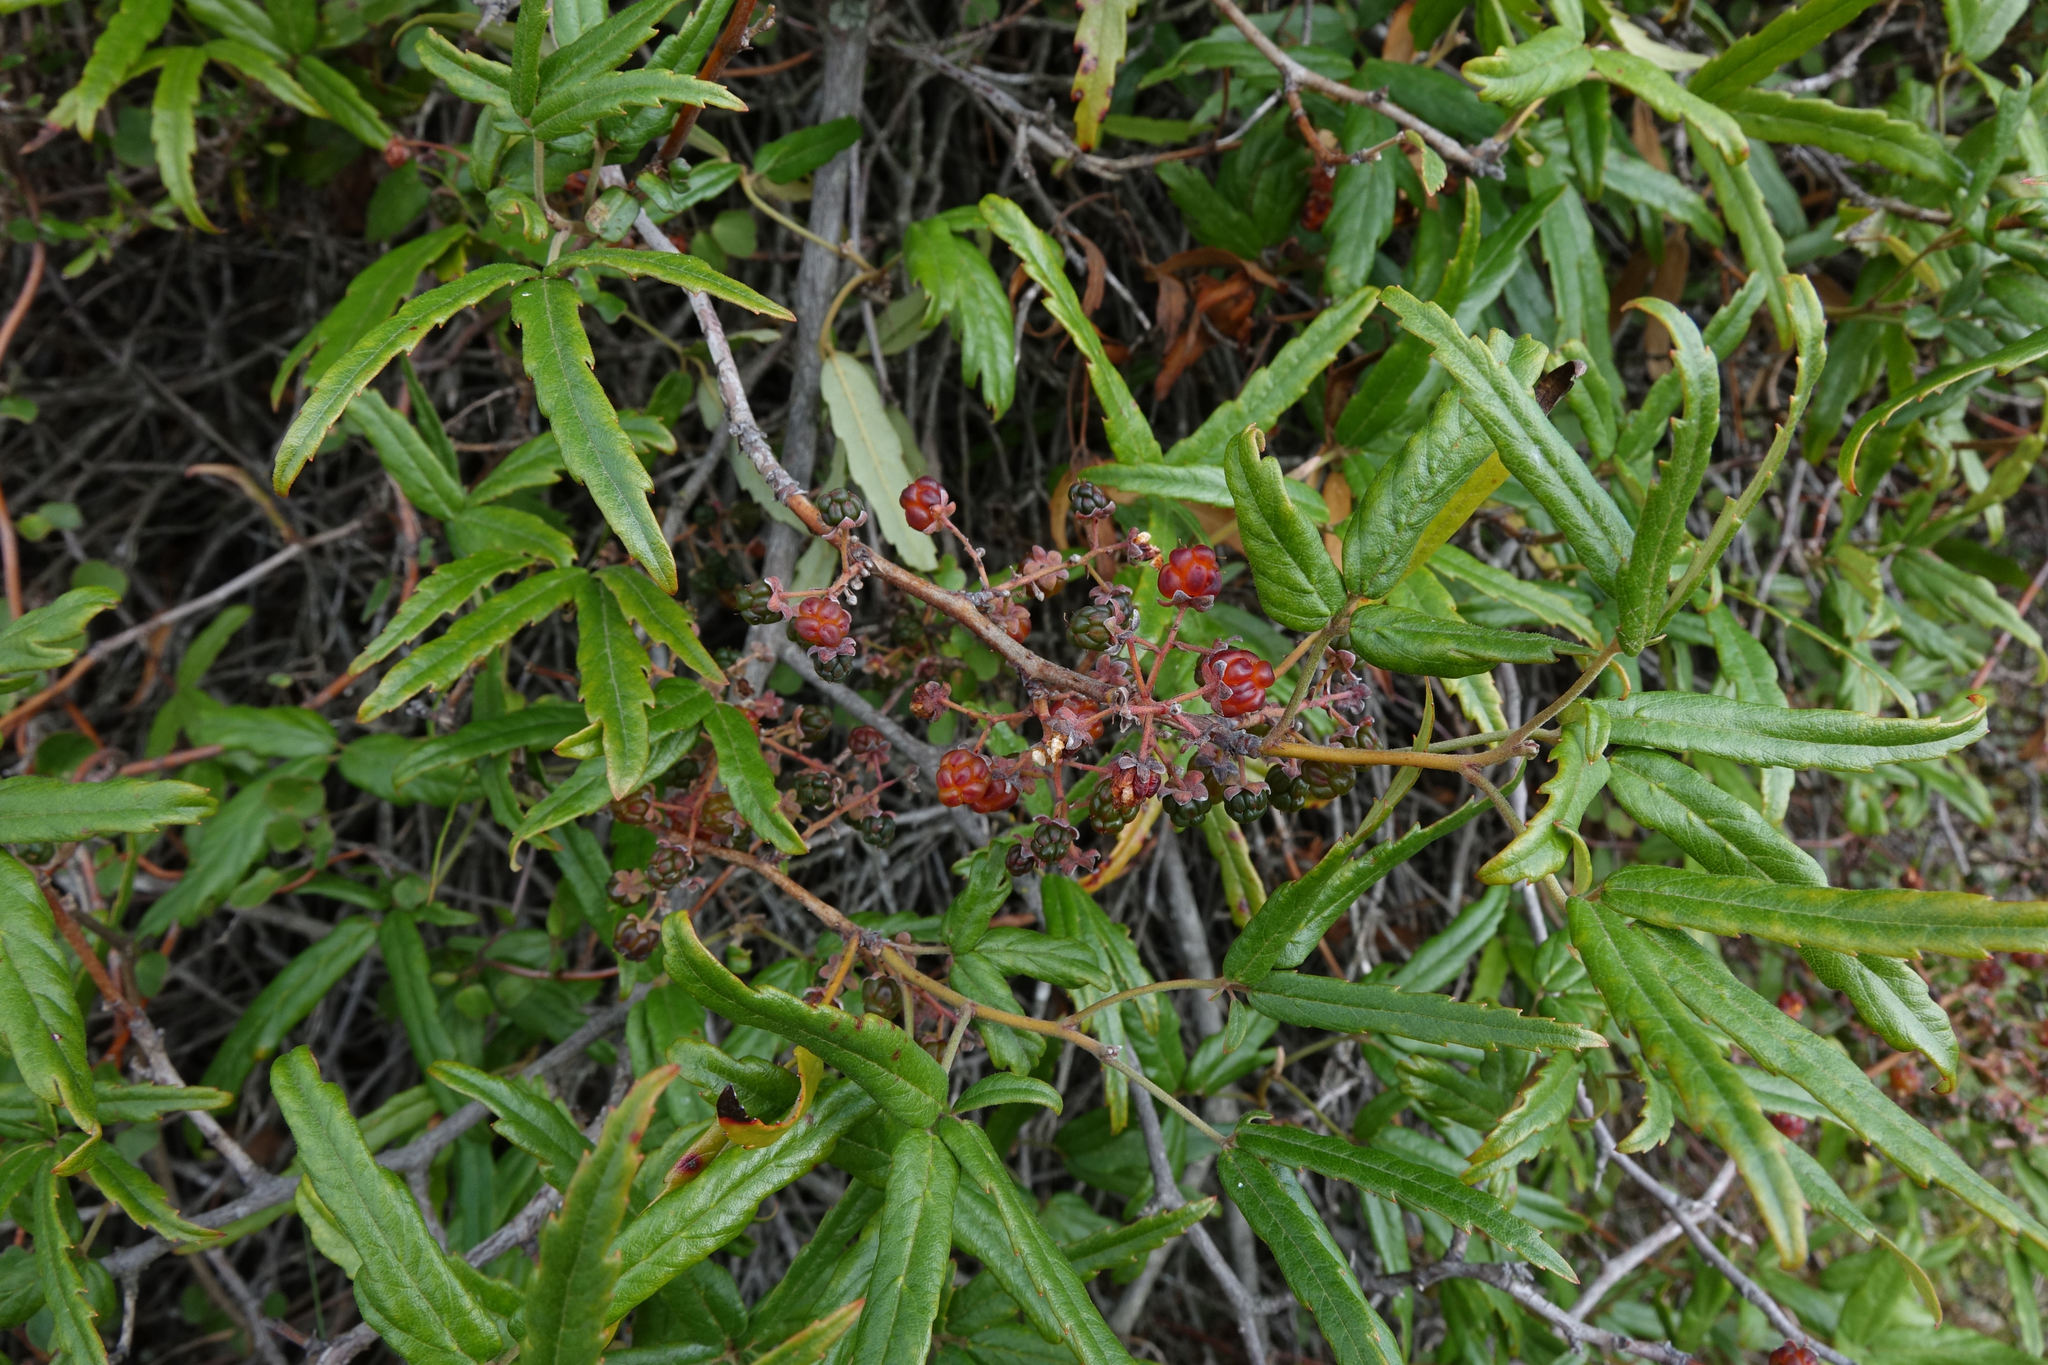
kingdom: Plantae
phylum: Tracheophyta
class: Magnoliopsida
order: Rosales
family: Rosaceae
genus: Rubus
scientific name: Rubus schmidelioides
